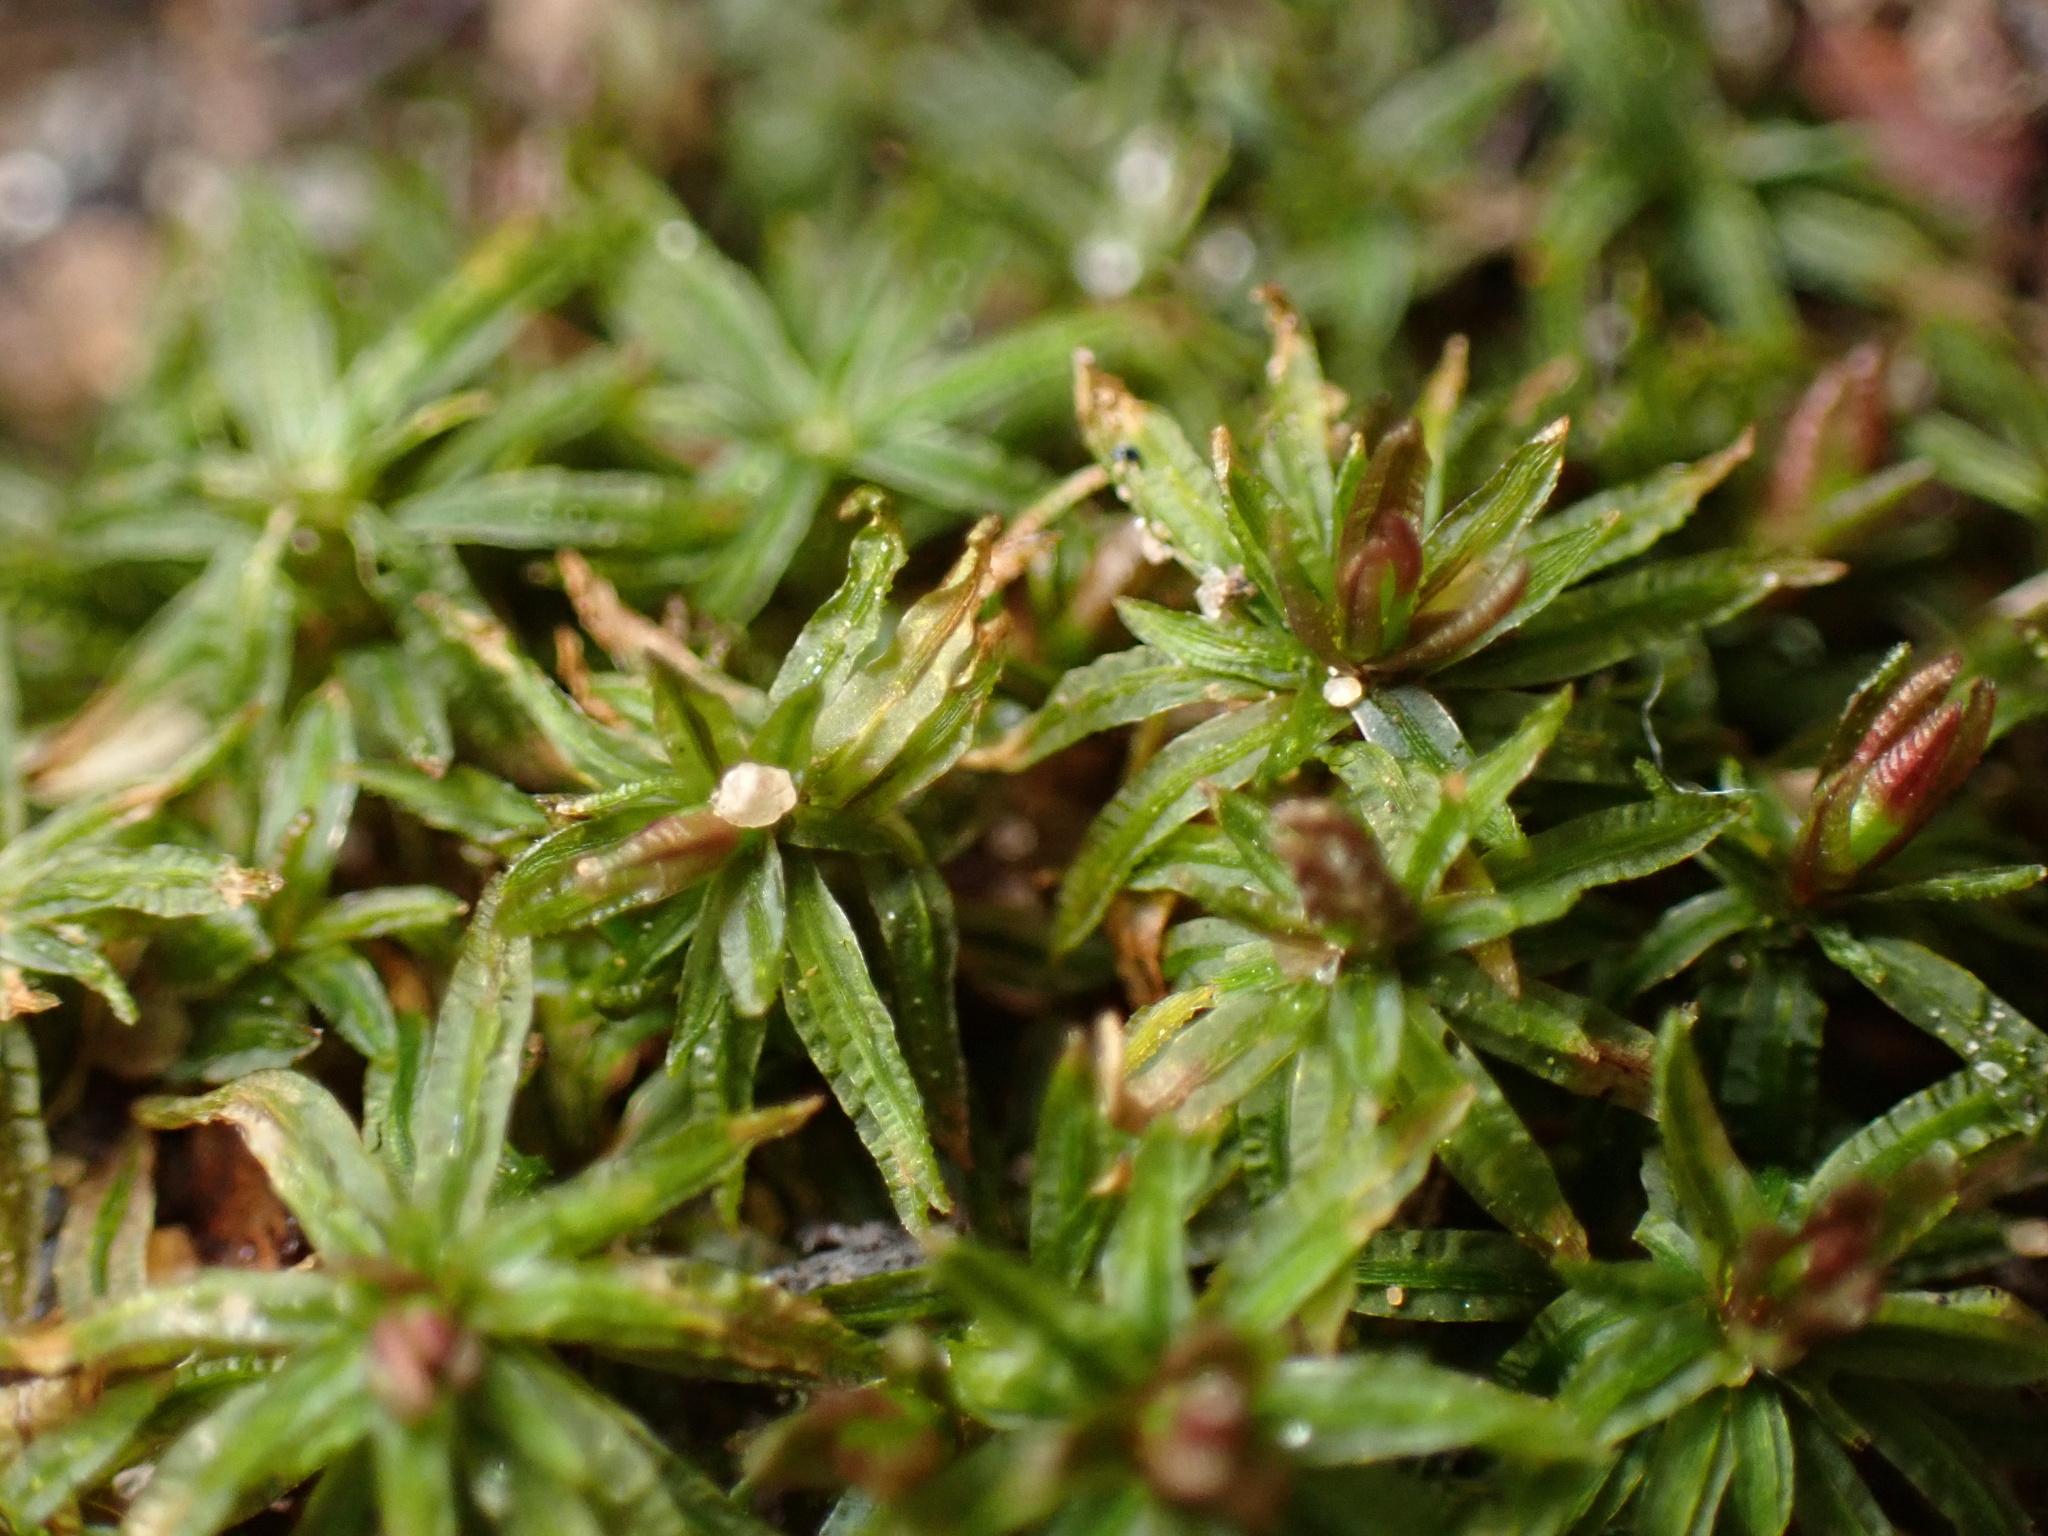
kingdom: Plantae
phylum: Bryophyta
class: Polytrichopsida
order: Polytrichales
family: Polytrichaceae
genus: Atrichum
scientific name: Atrichum angustatum
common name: Lesser smoothcap
